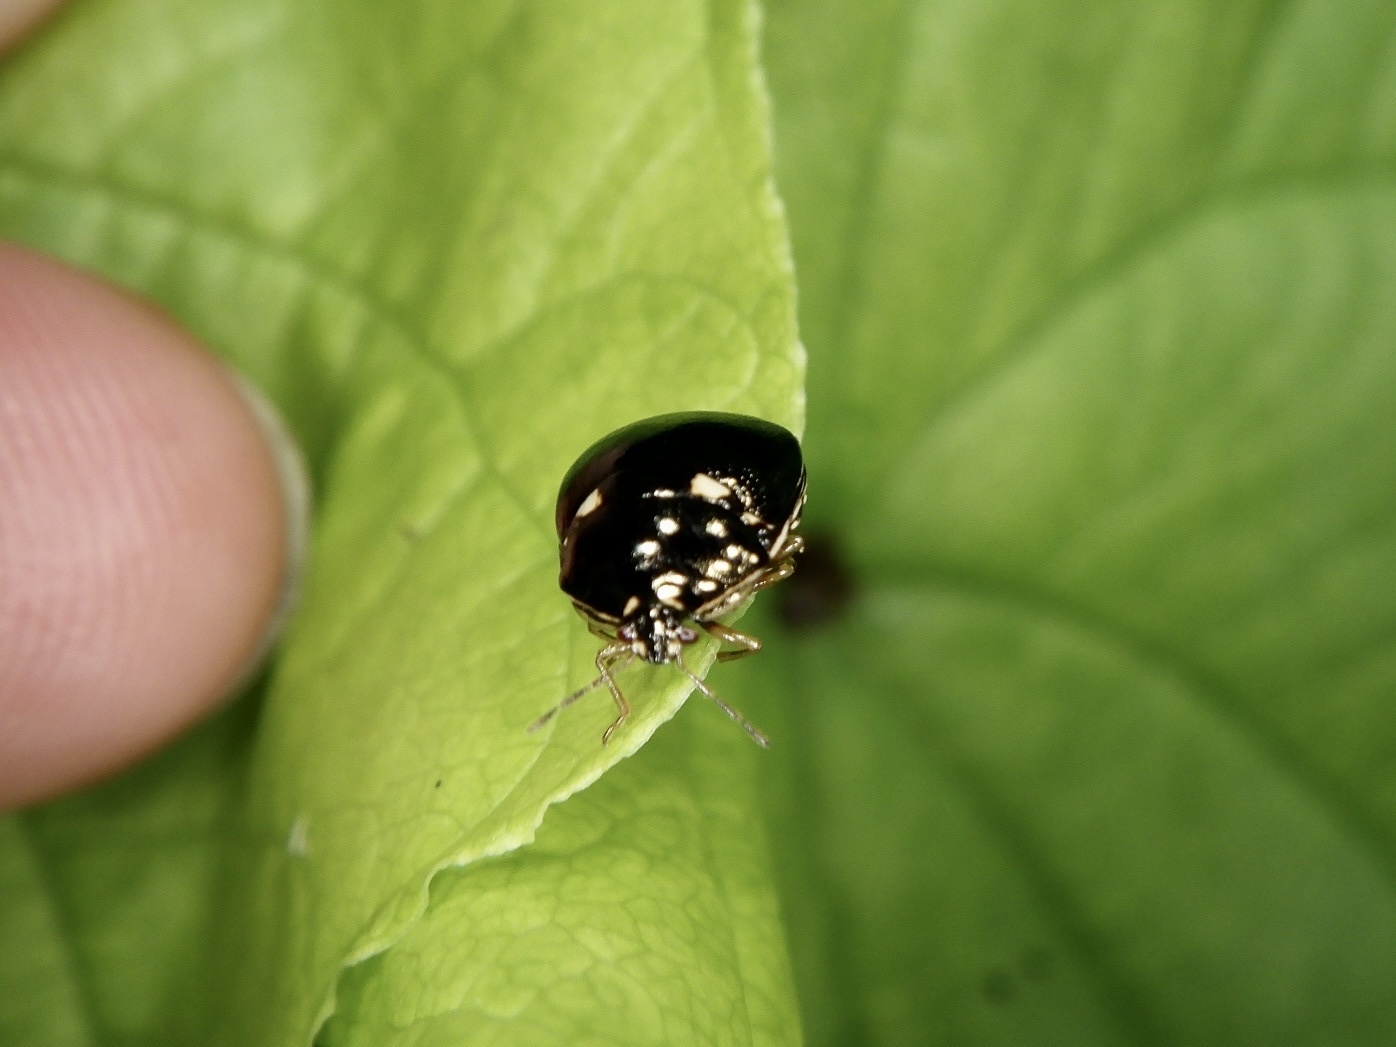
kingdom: Animalia
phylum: Arthropoda
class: Insecta
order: Hemiptera
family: Plataspidae
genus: Coptosoma
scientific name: Coptosoma
